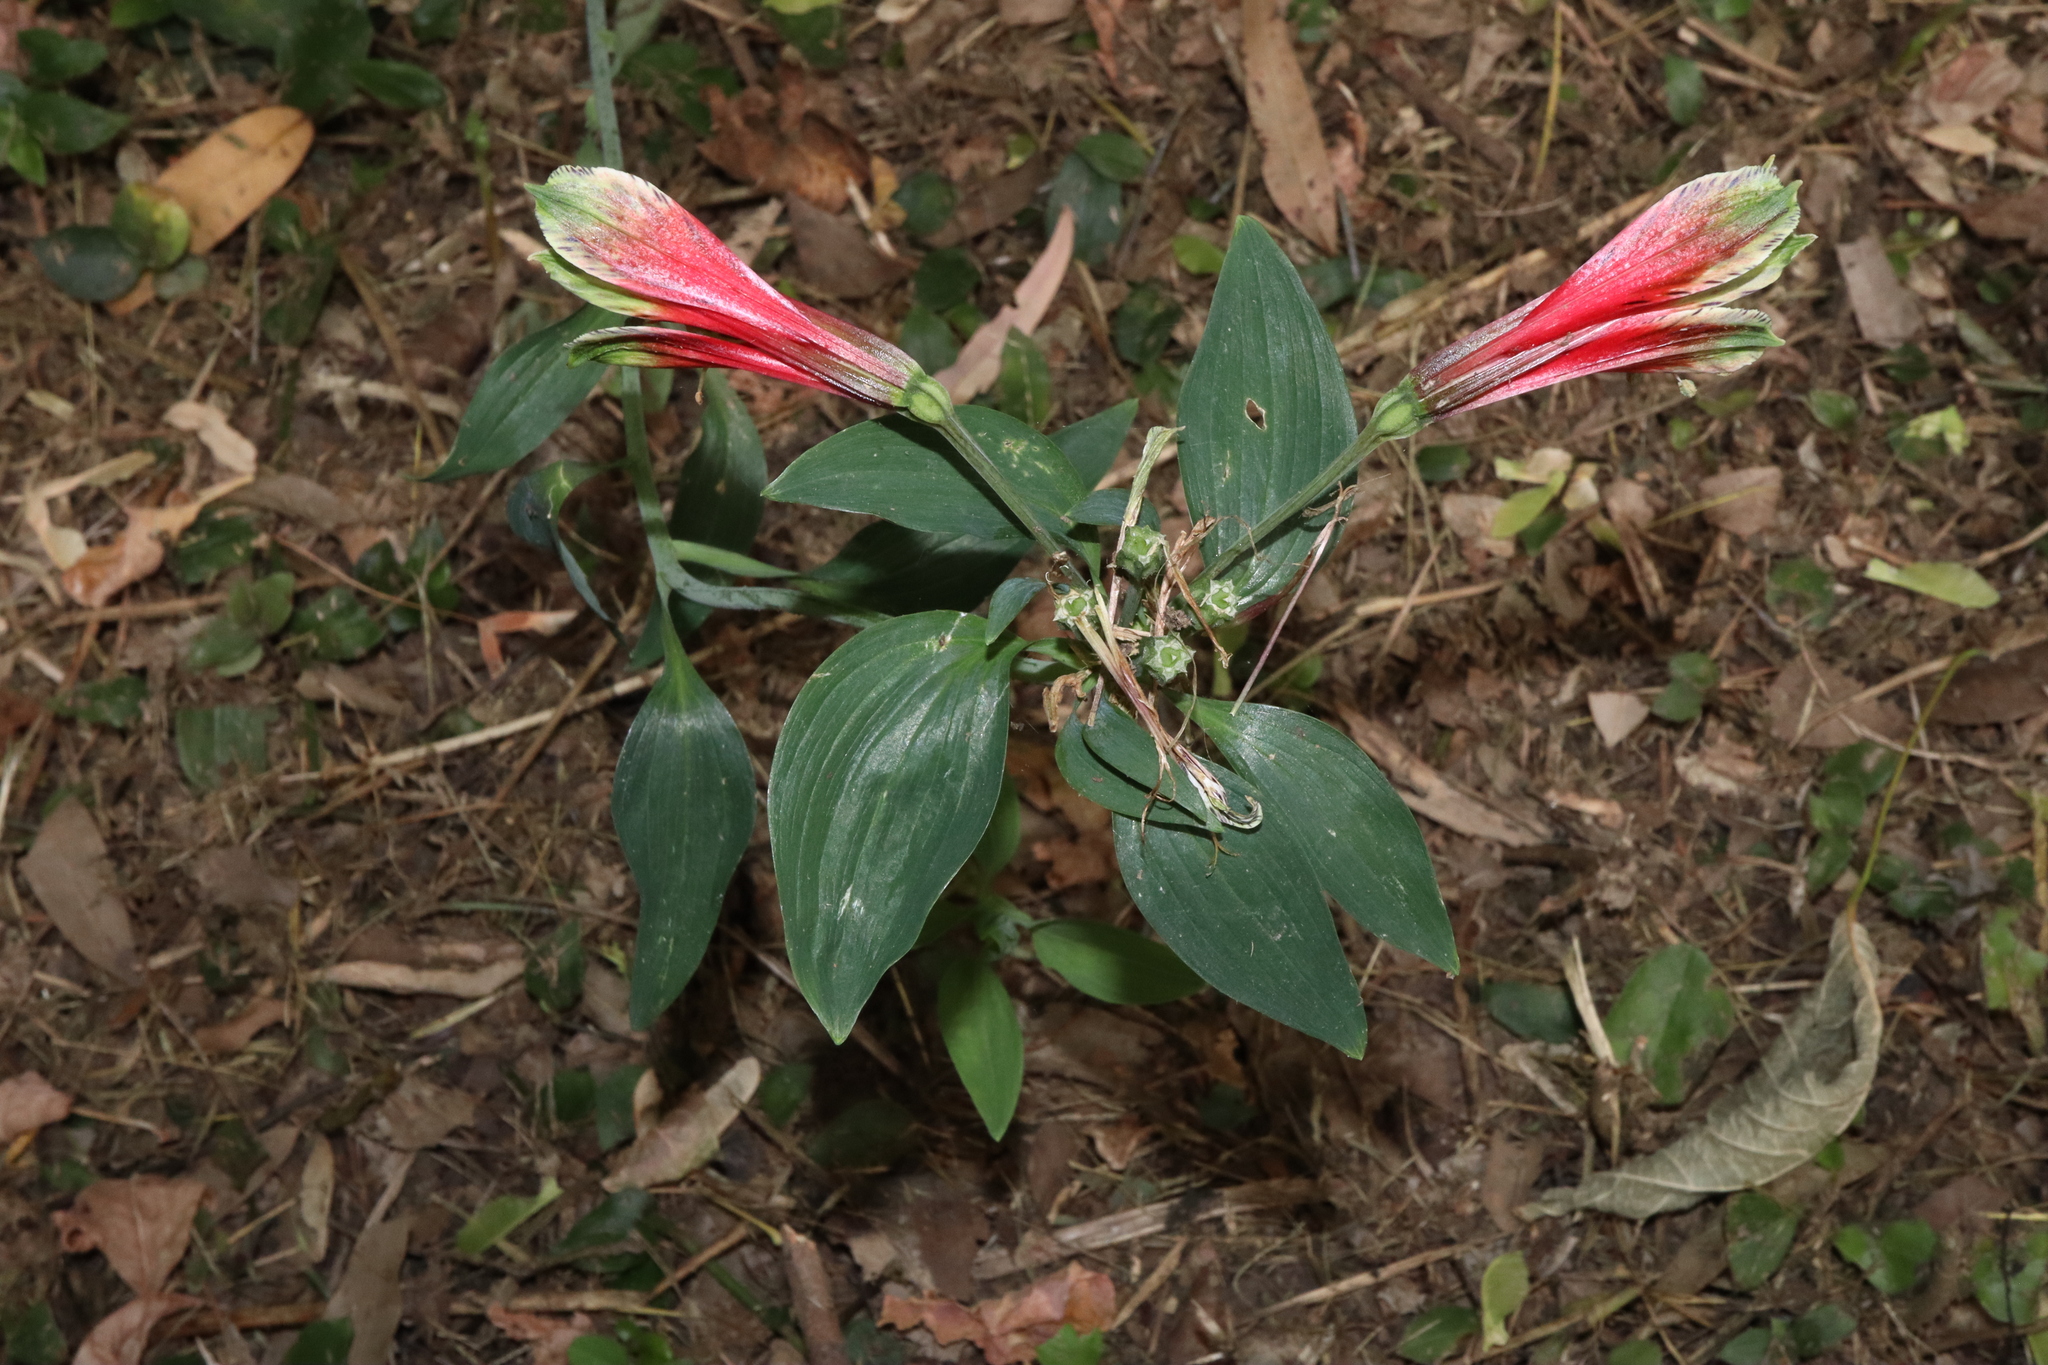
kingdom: Plantae
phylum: Tracheophyta
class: Liliopsida
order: Liliales
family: Alstroemeriaceae
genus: Alstroemeria
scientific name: Alstroemeria psittacina
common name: Peruvian-lily
